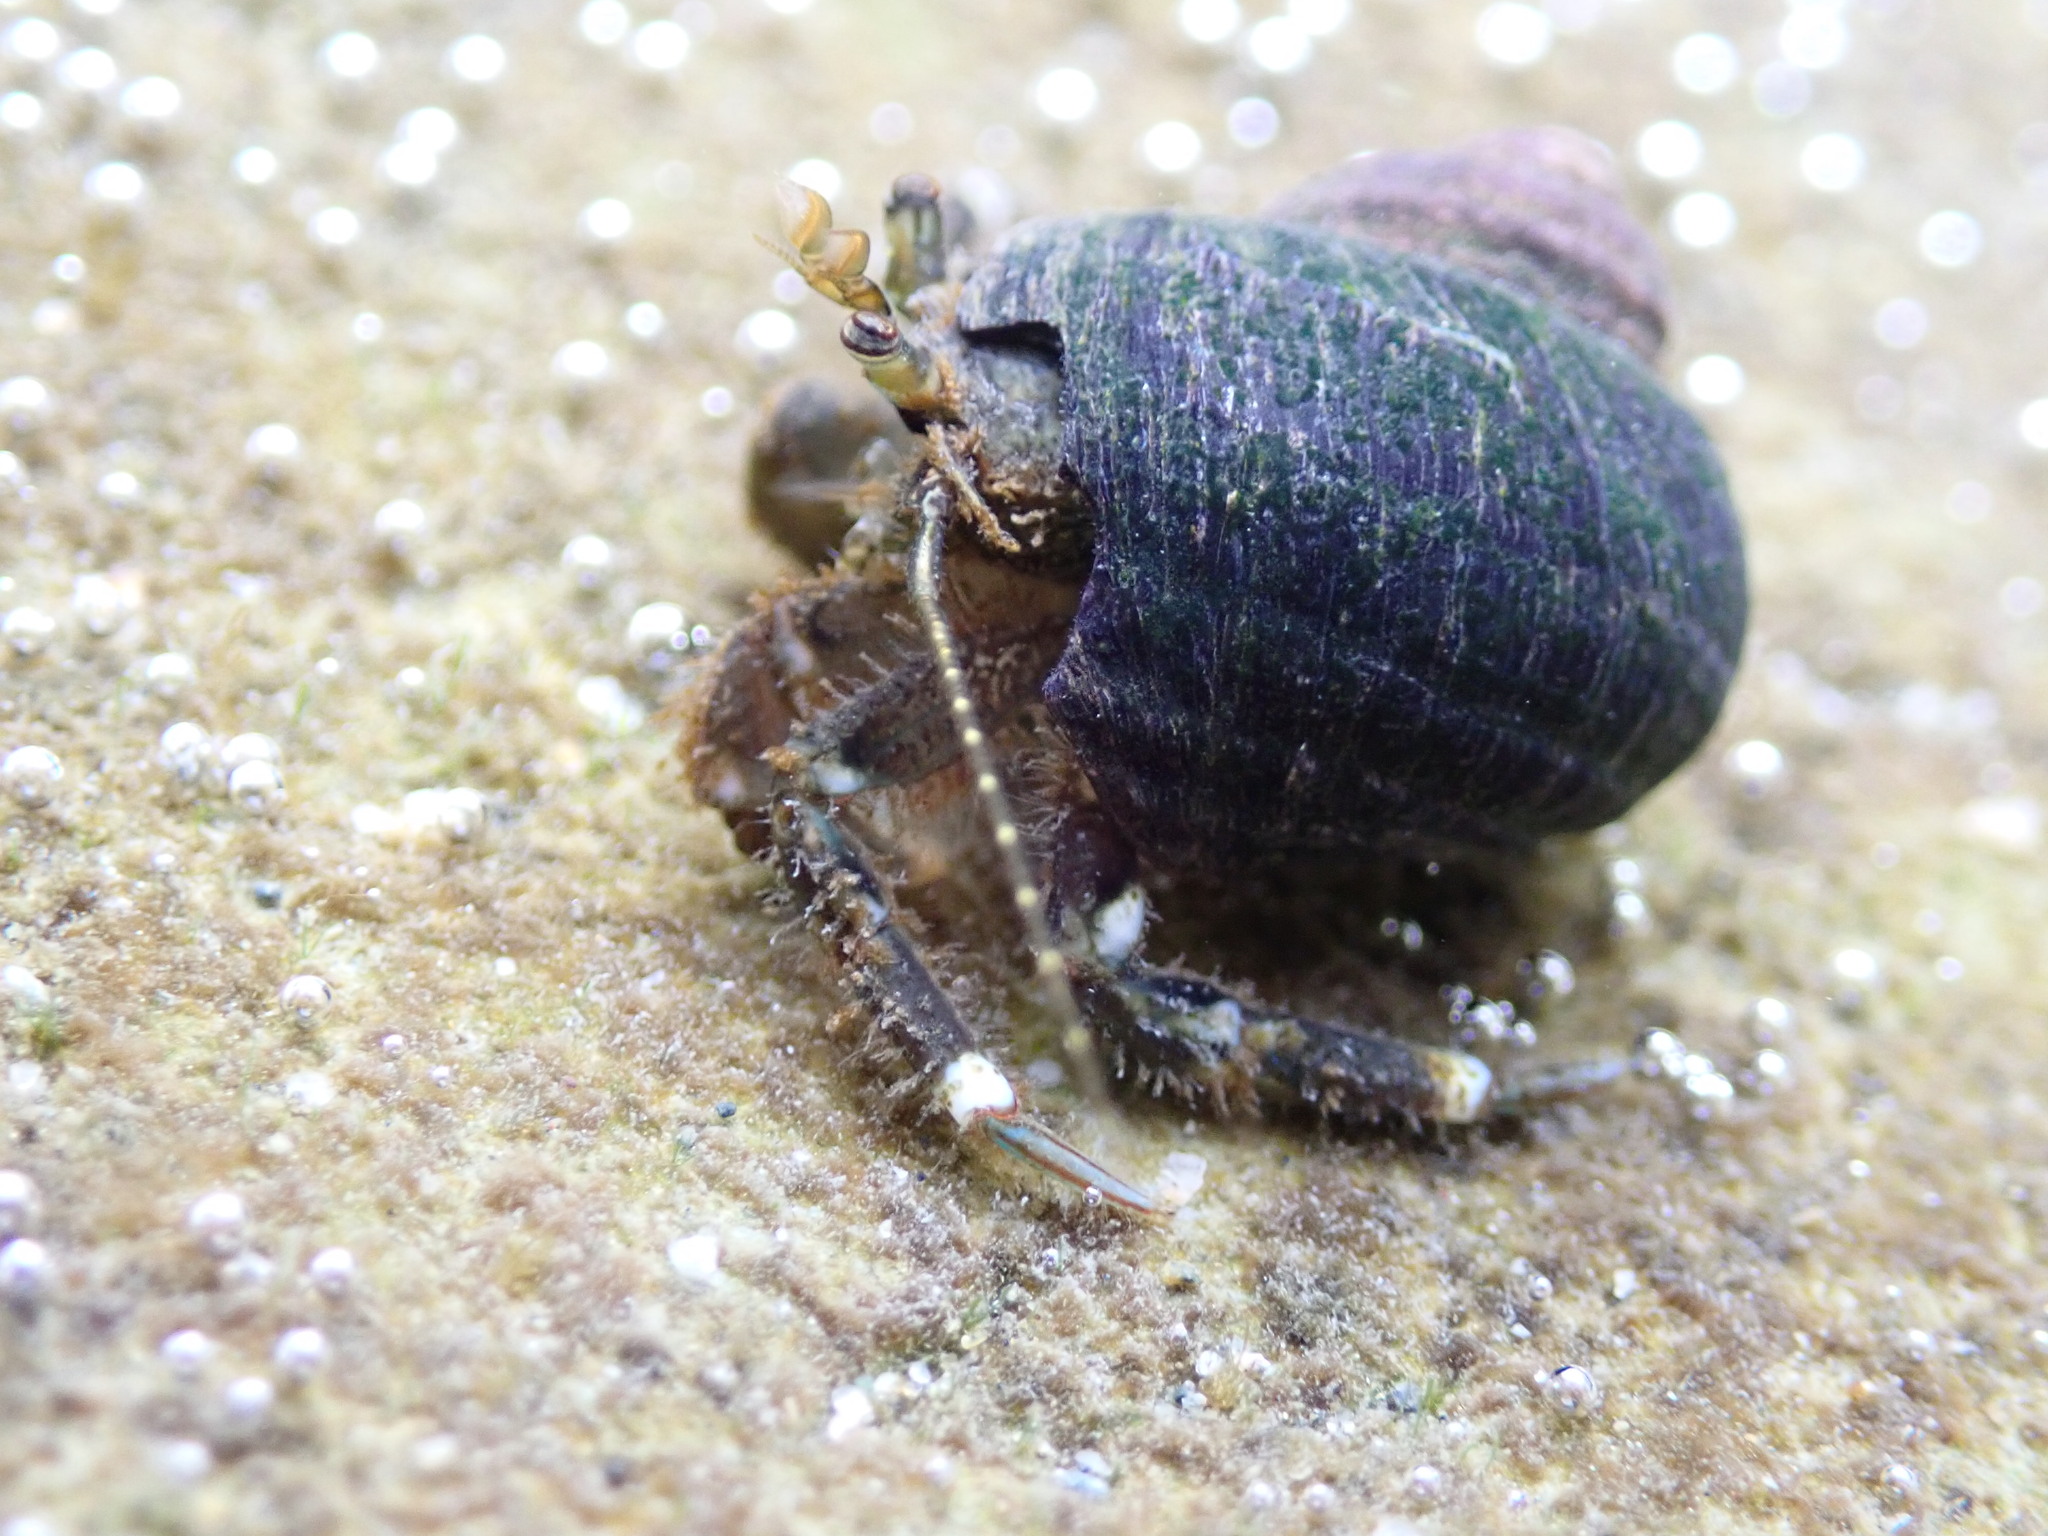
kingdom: Animalia
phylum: Arthropoda
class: Malacostraca
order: Decapoda
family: Paguridae
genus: Pagurus
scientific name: Pagurus hirsutiusculus
